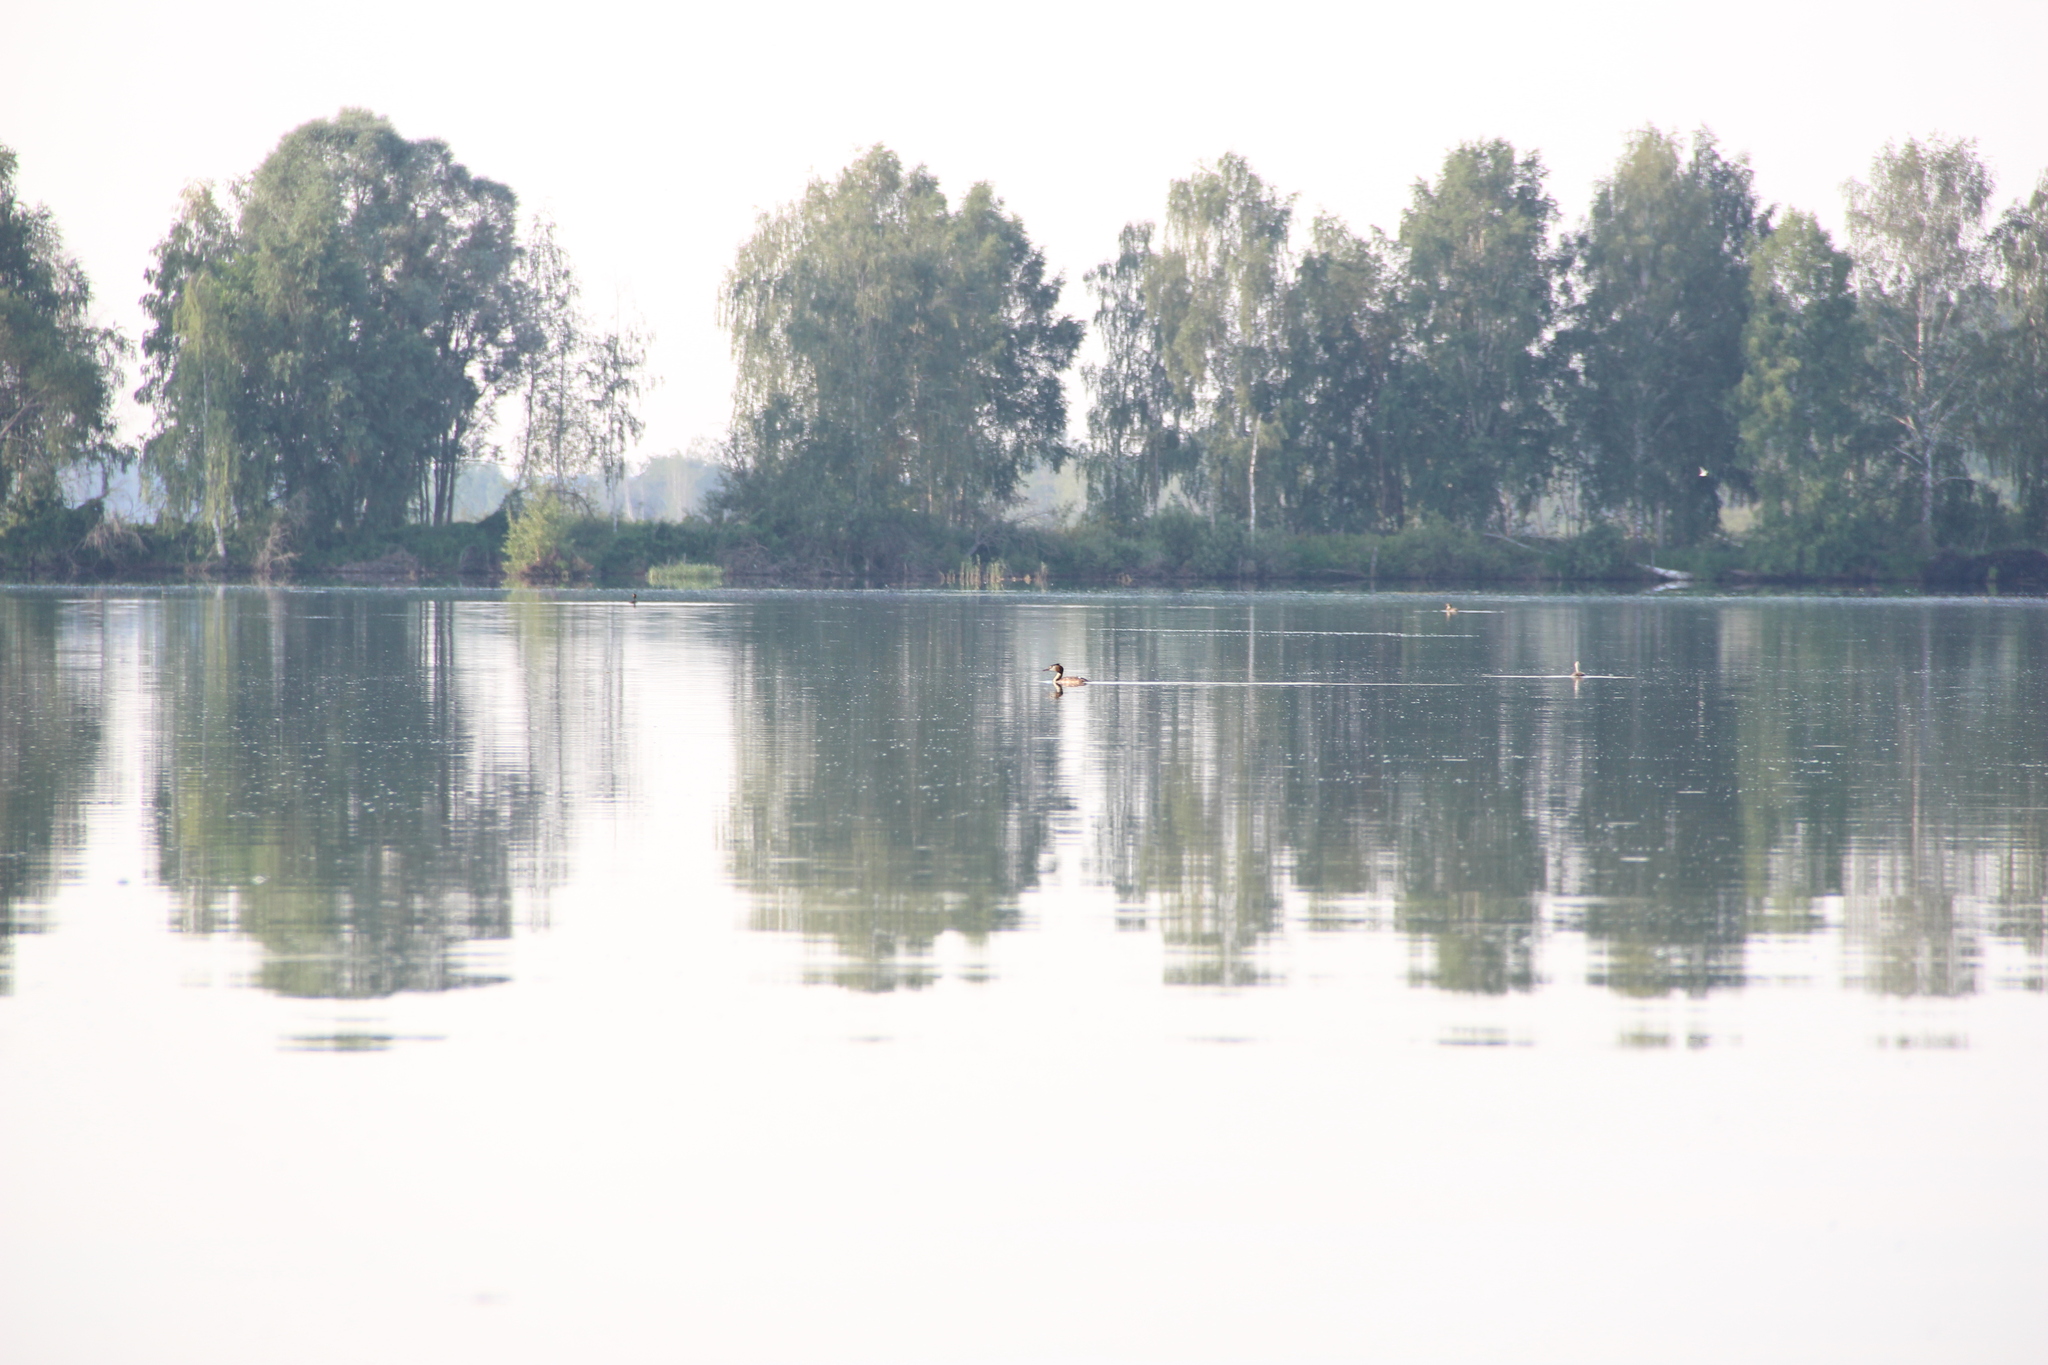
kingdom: Animalia
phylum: Chordata
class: Aves
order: Podicipediformes
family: Podicipedidae
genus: Podiceps
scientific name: Podiceps cristatus
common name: Great crested grebe
